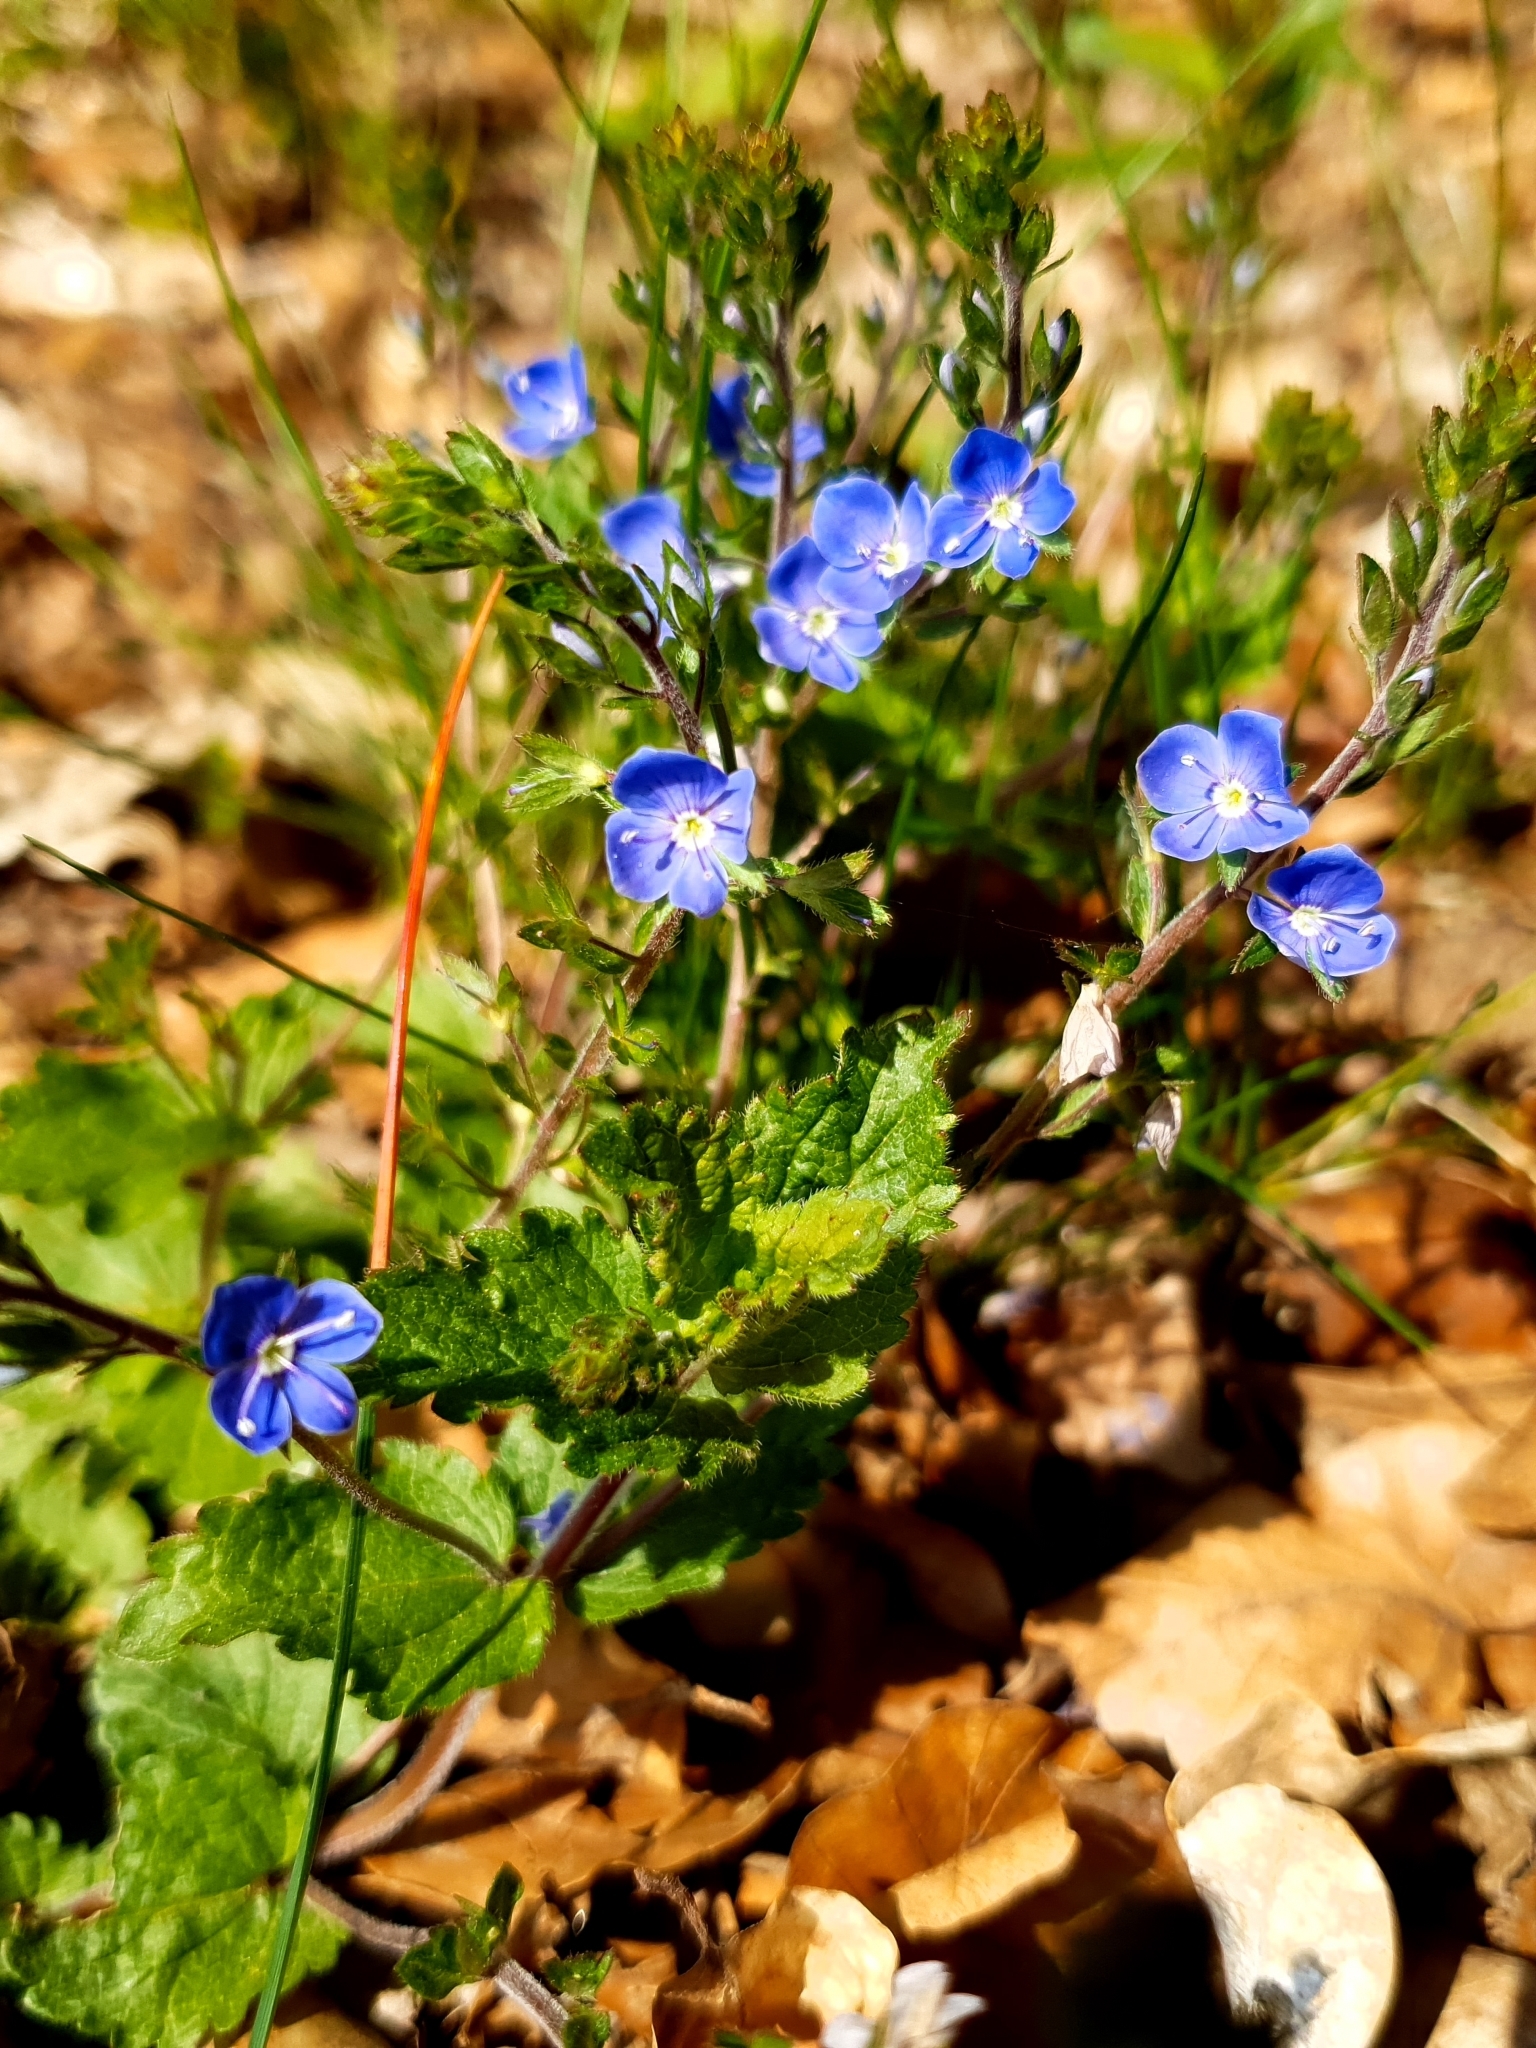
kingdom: Plantae
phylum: Tracheophyta
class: Magnoliopsida
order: Lamiales
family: Plantaginaceae
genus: Veronica
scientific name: Veronica chamaedrys
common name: Germander speedwell
